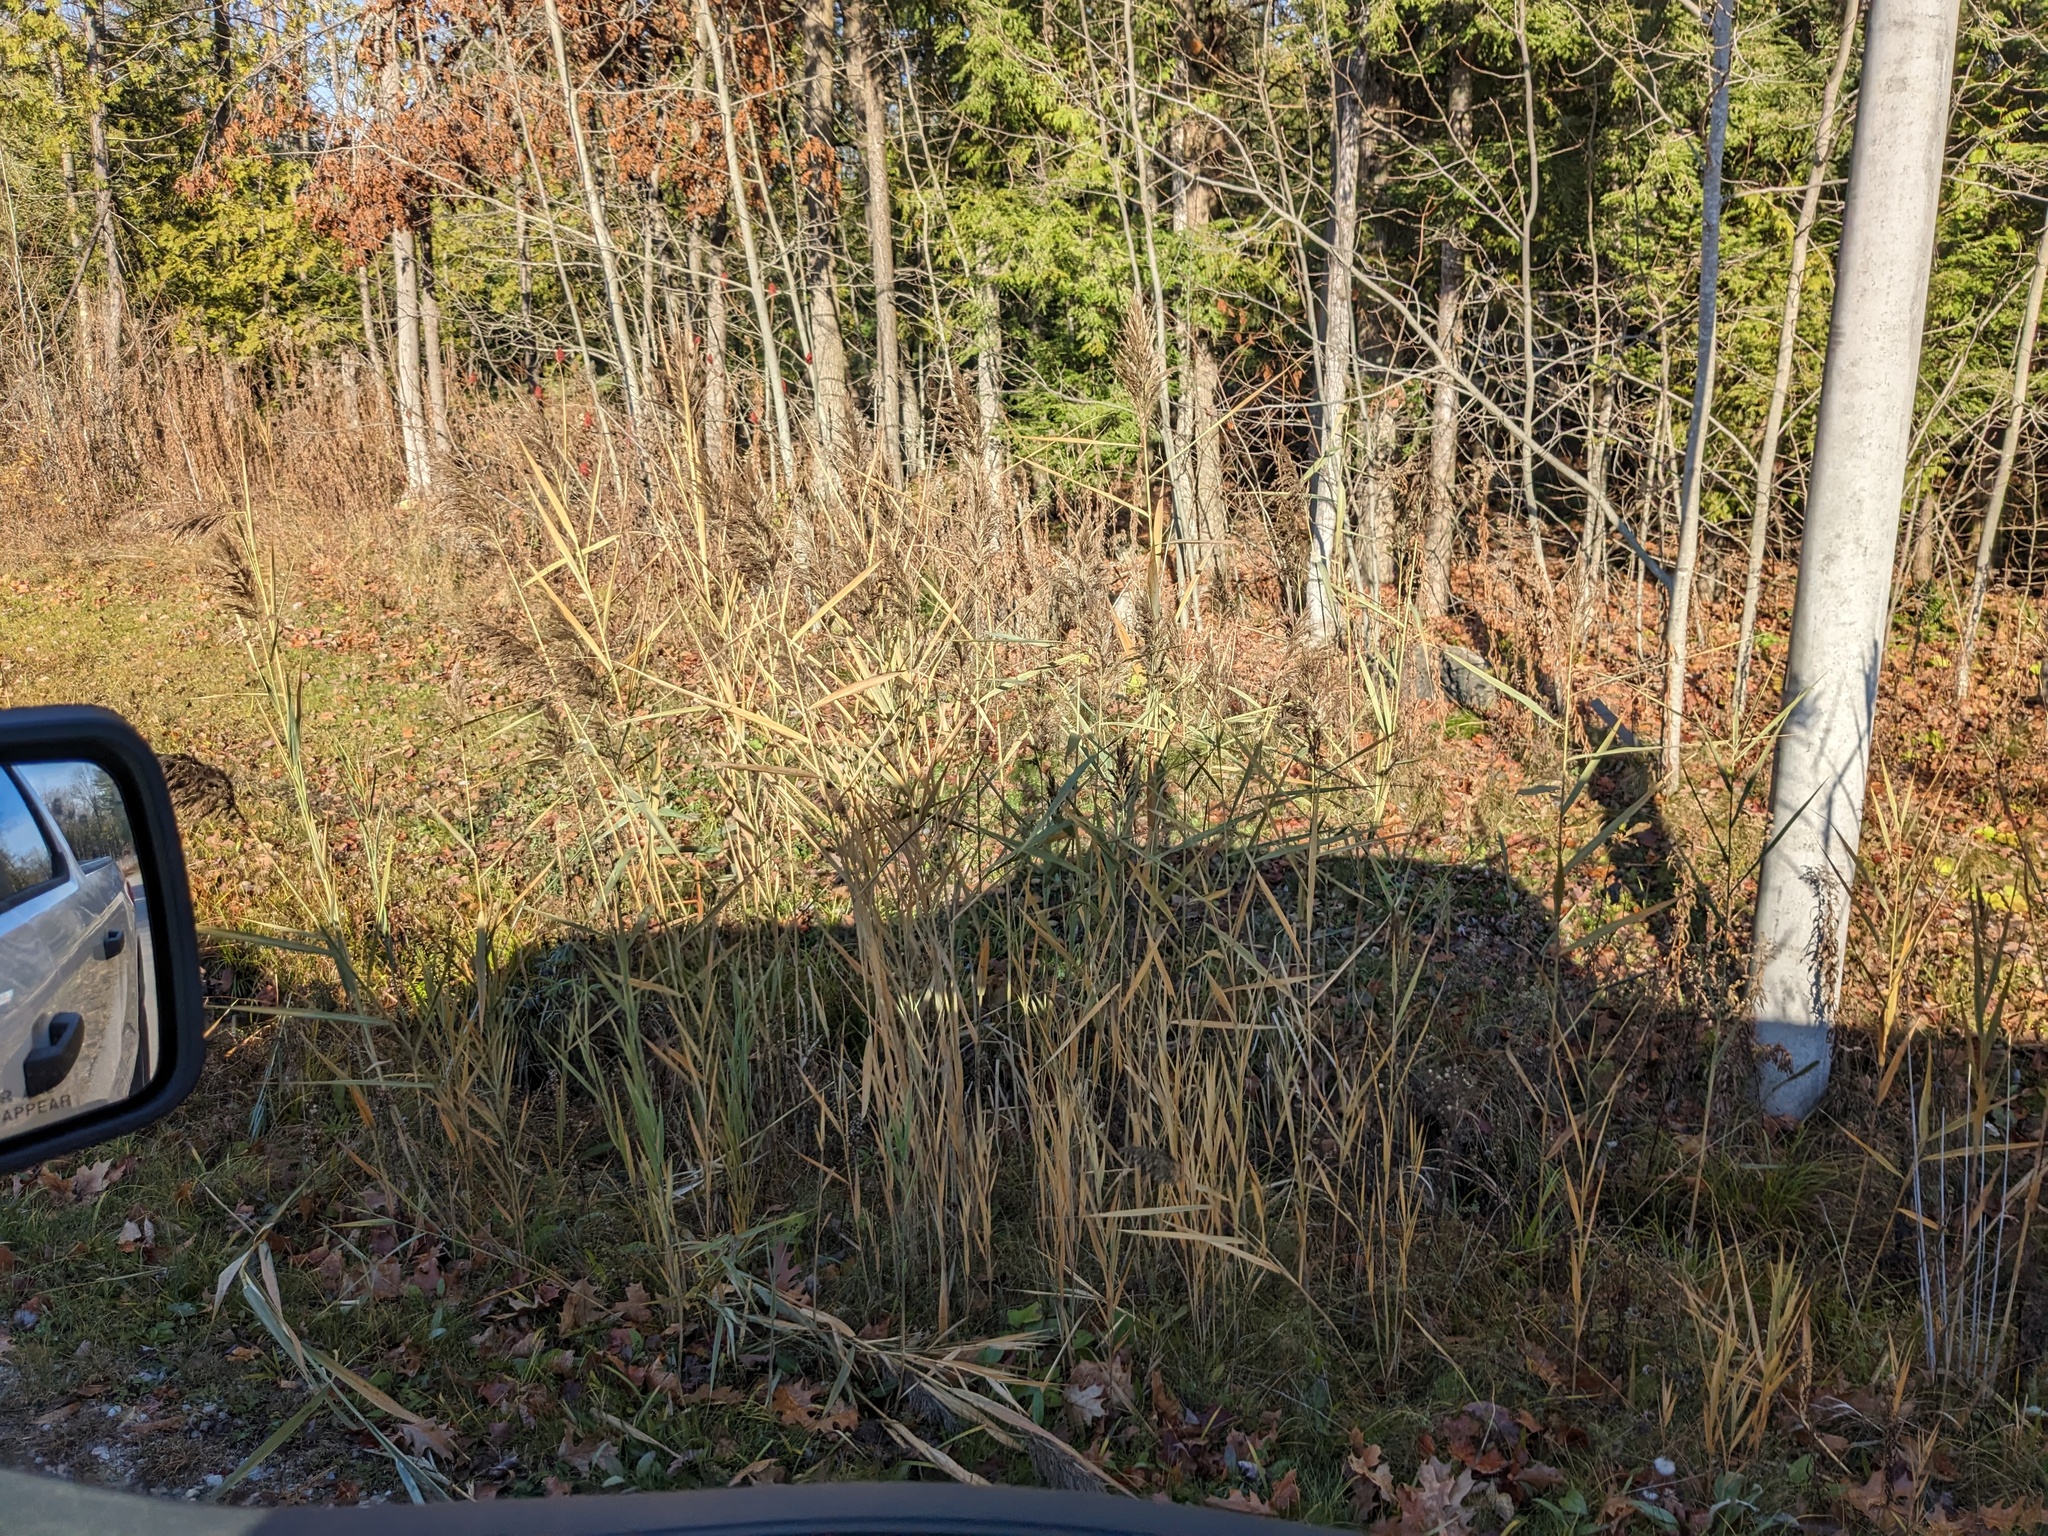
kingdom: Plantae
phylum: Tracheophyta
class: Liliopsida
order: Poales
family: Poaceae
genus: Phragmites
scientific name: Phragmites australis
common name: Common reed
